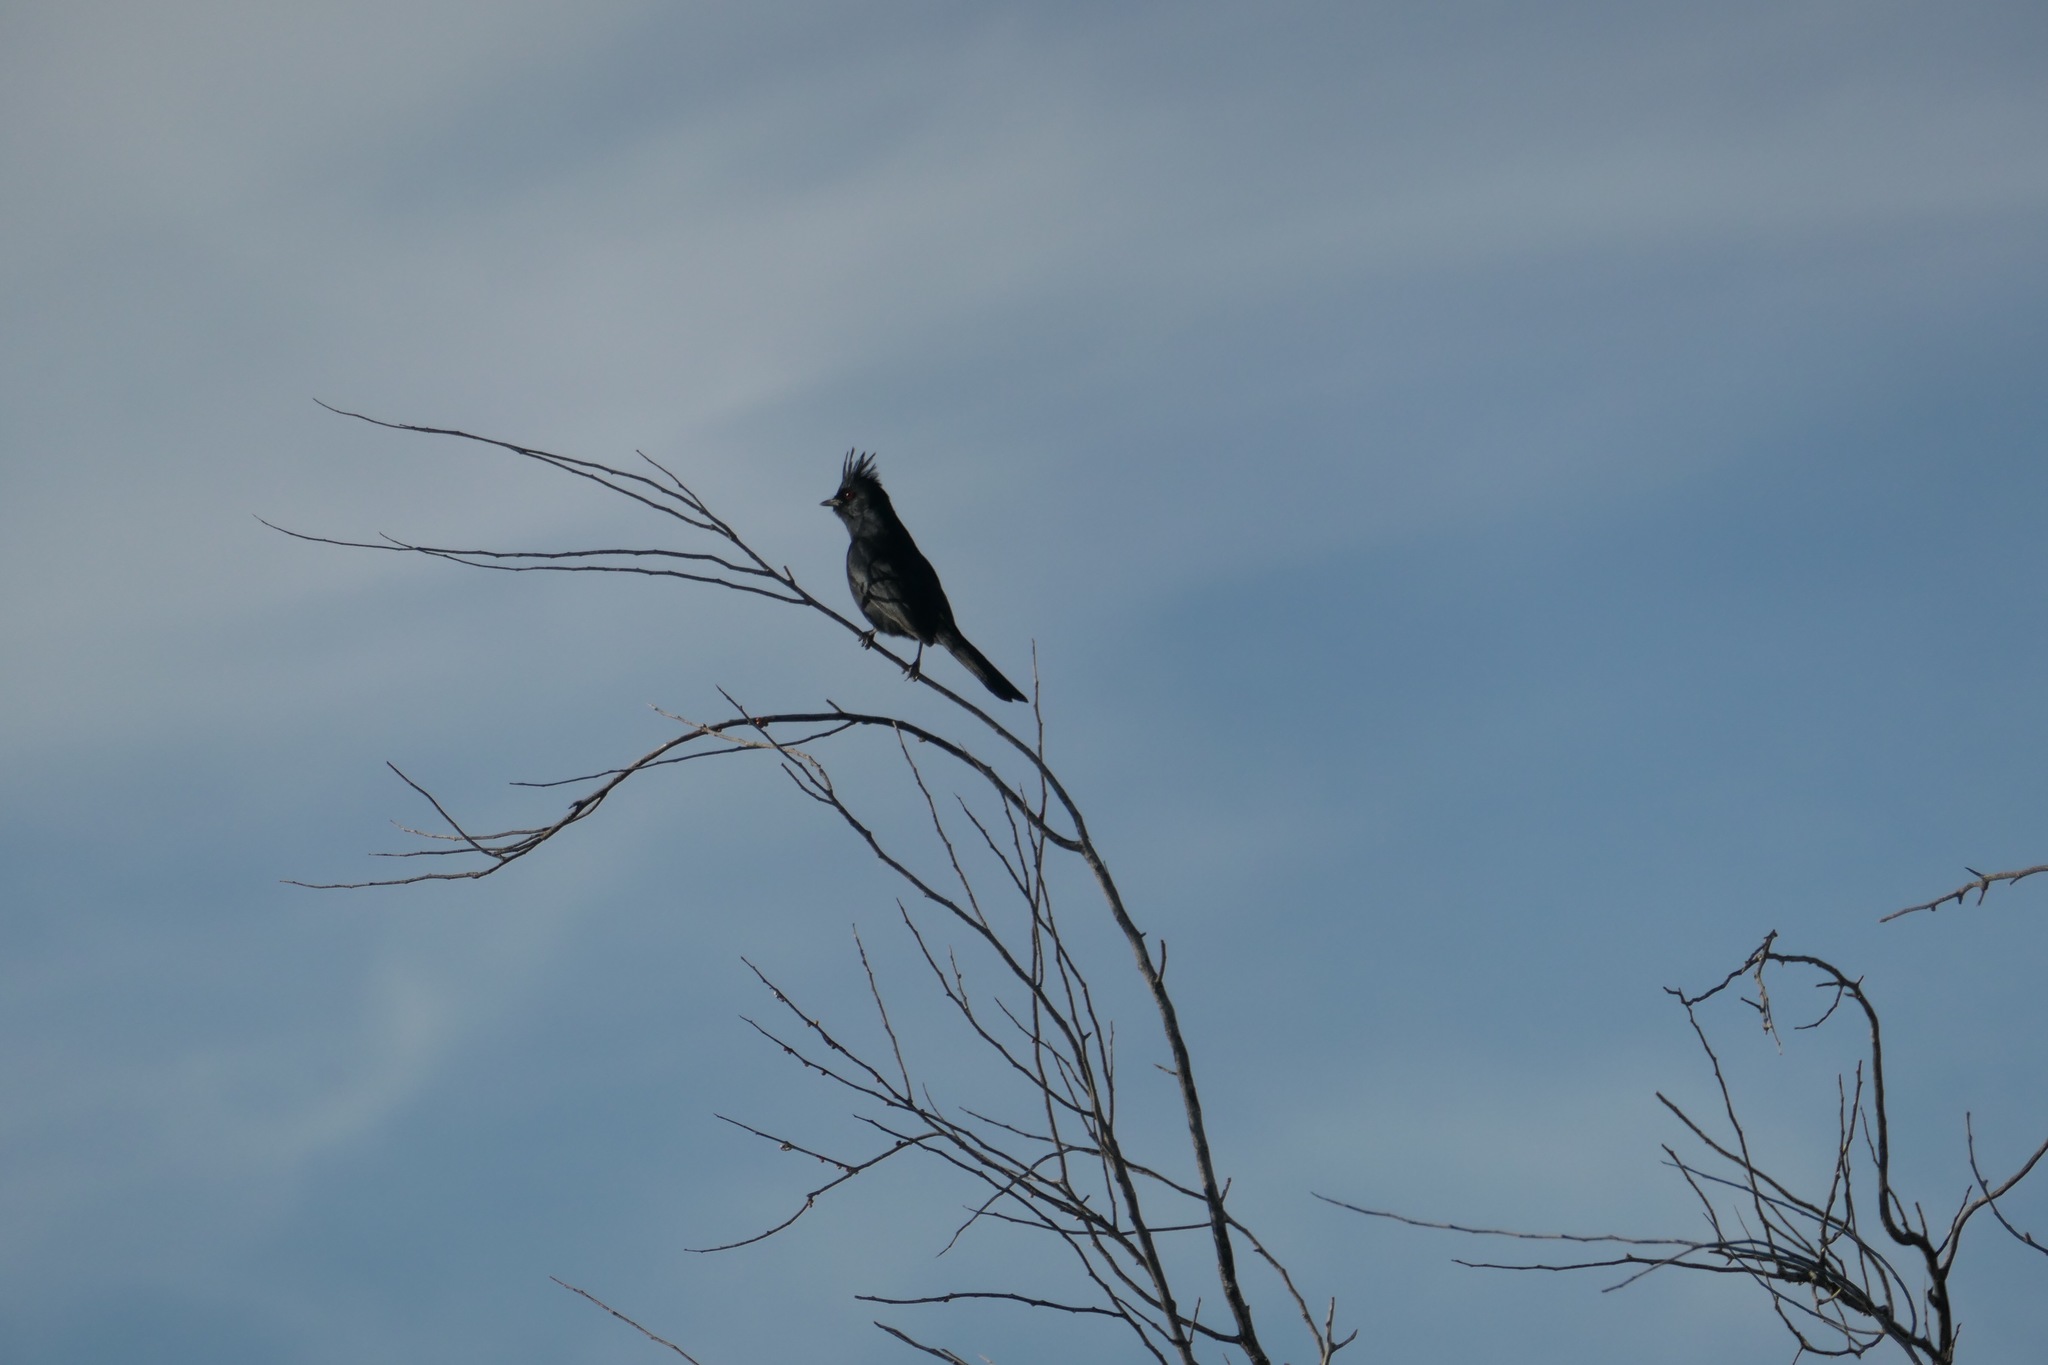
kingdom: Animalia
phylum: Chordata
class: Aves
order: Passeriformes
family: Ptilogonatidae
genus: Phainopepla
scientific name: Phainopepla nitens
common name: Phainopepla
